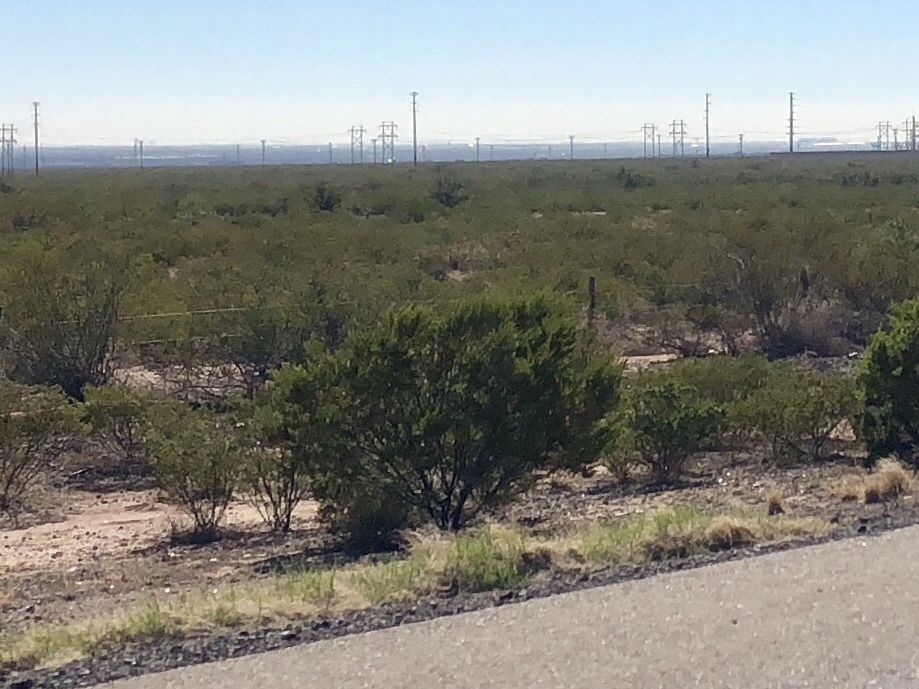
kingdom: Plantae
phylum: Tracheophyta
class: Magnoliopsida
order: Zygophyllales
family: Zygophyllaceae
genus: Larrea
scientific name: Larrea tridentata
